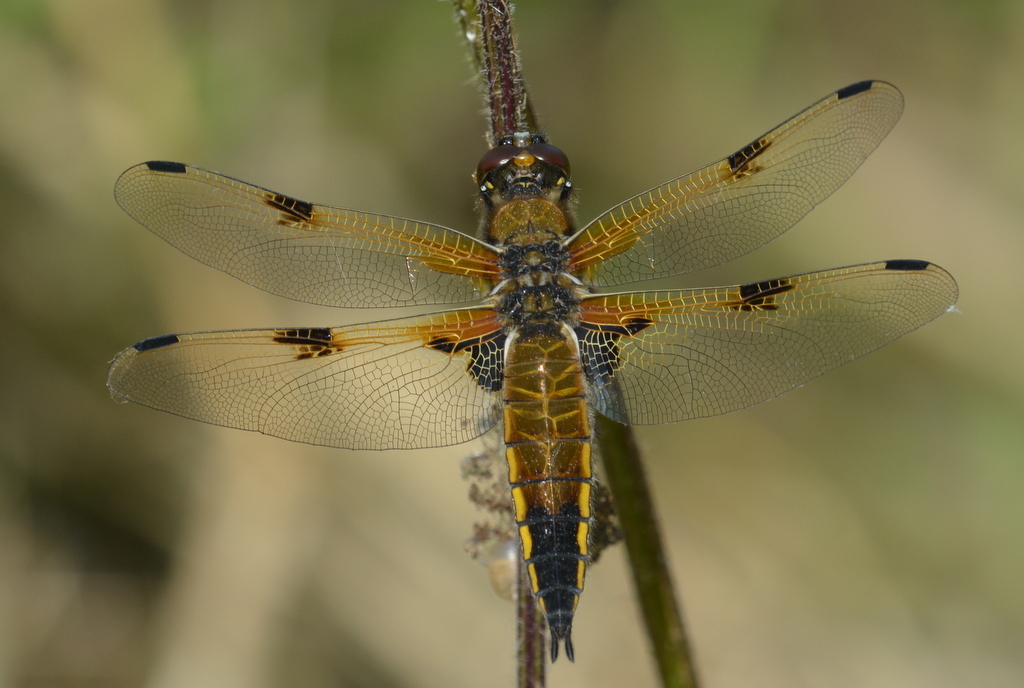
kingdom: Animalia
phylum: Arthropoda
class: Insecta
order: Odonata
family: Libellulidae
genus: Libellula
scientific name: Libellula quadrimaculata
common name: Four-spotted chaser
